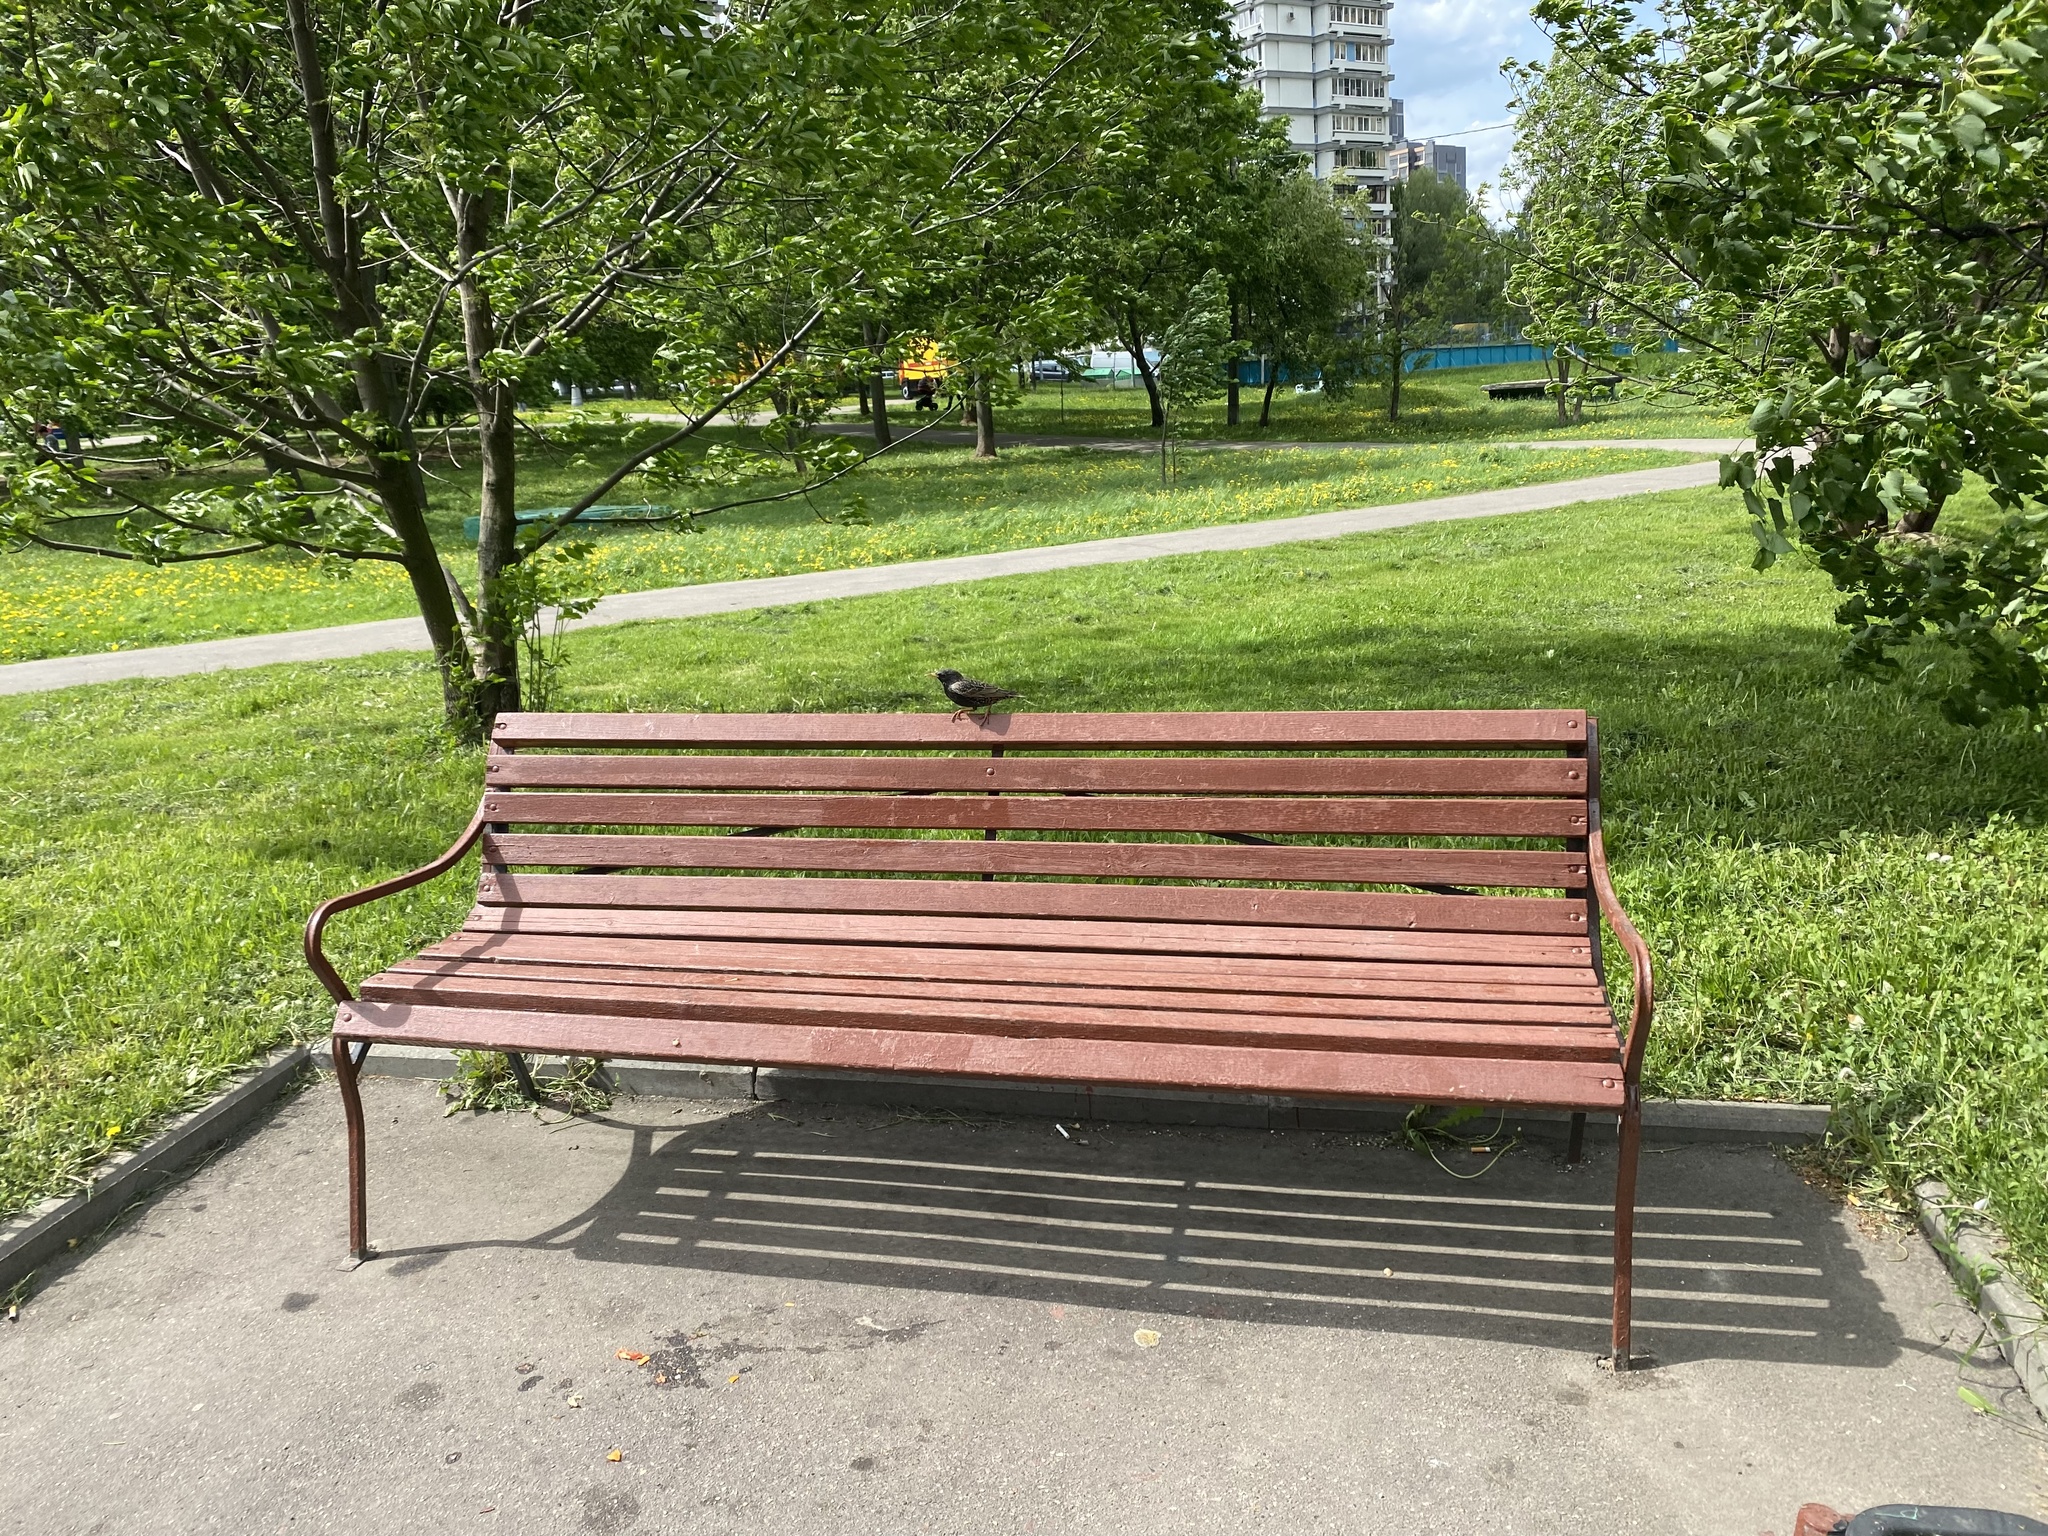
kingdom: Animalia
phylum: Chordata
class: Aves
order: Passeriformes
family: Sturnidae
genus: Sturnus
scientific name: Sturnus vulgaris
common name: Common starling
